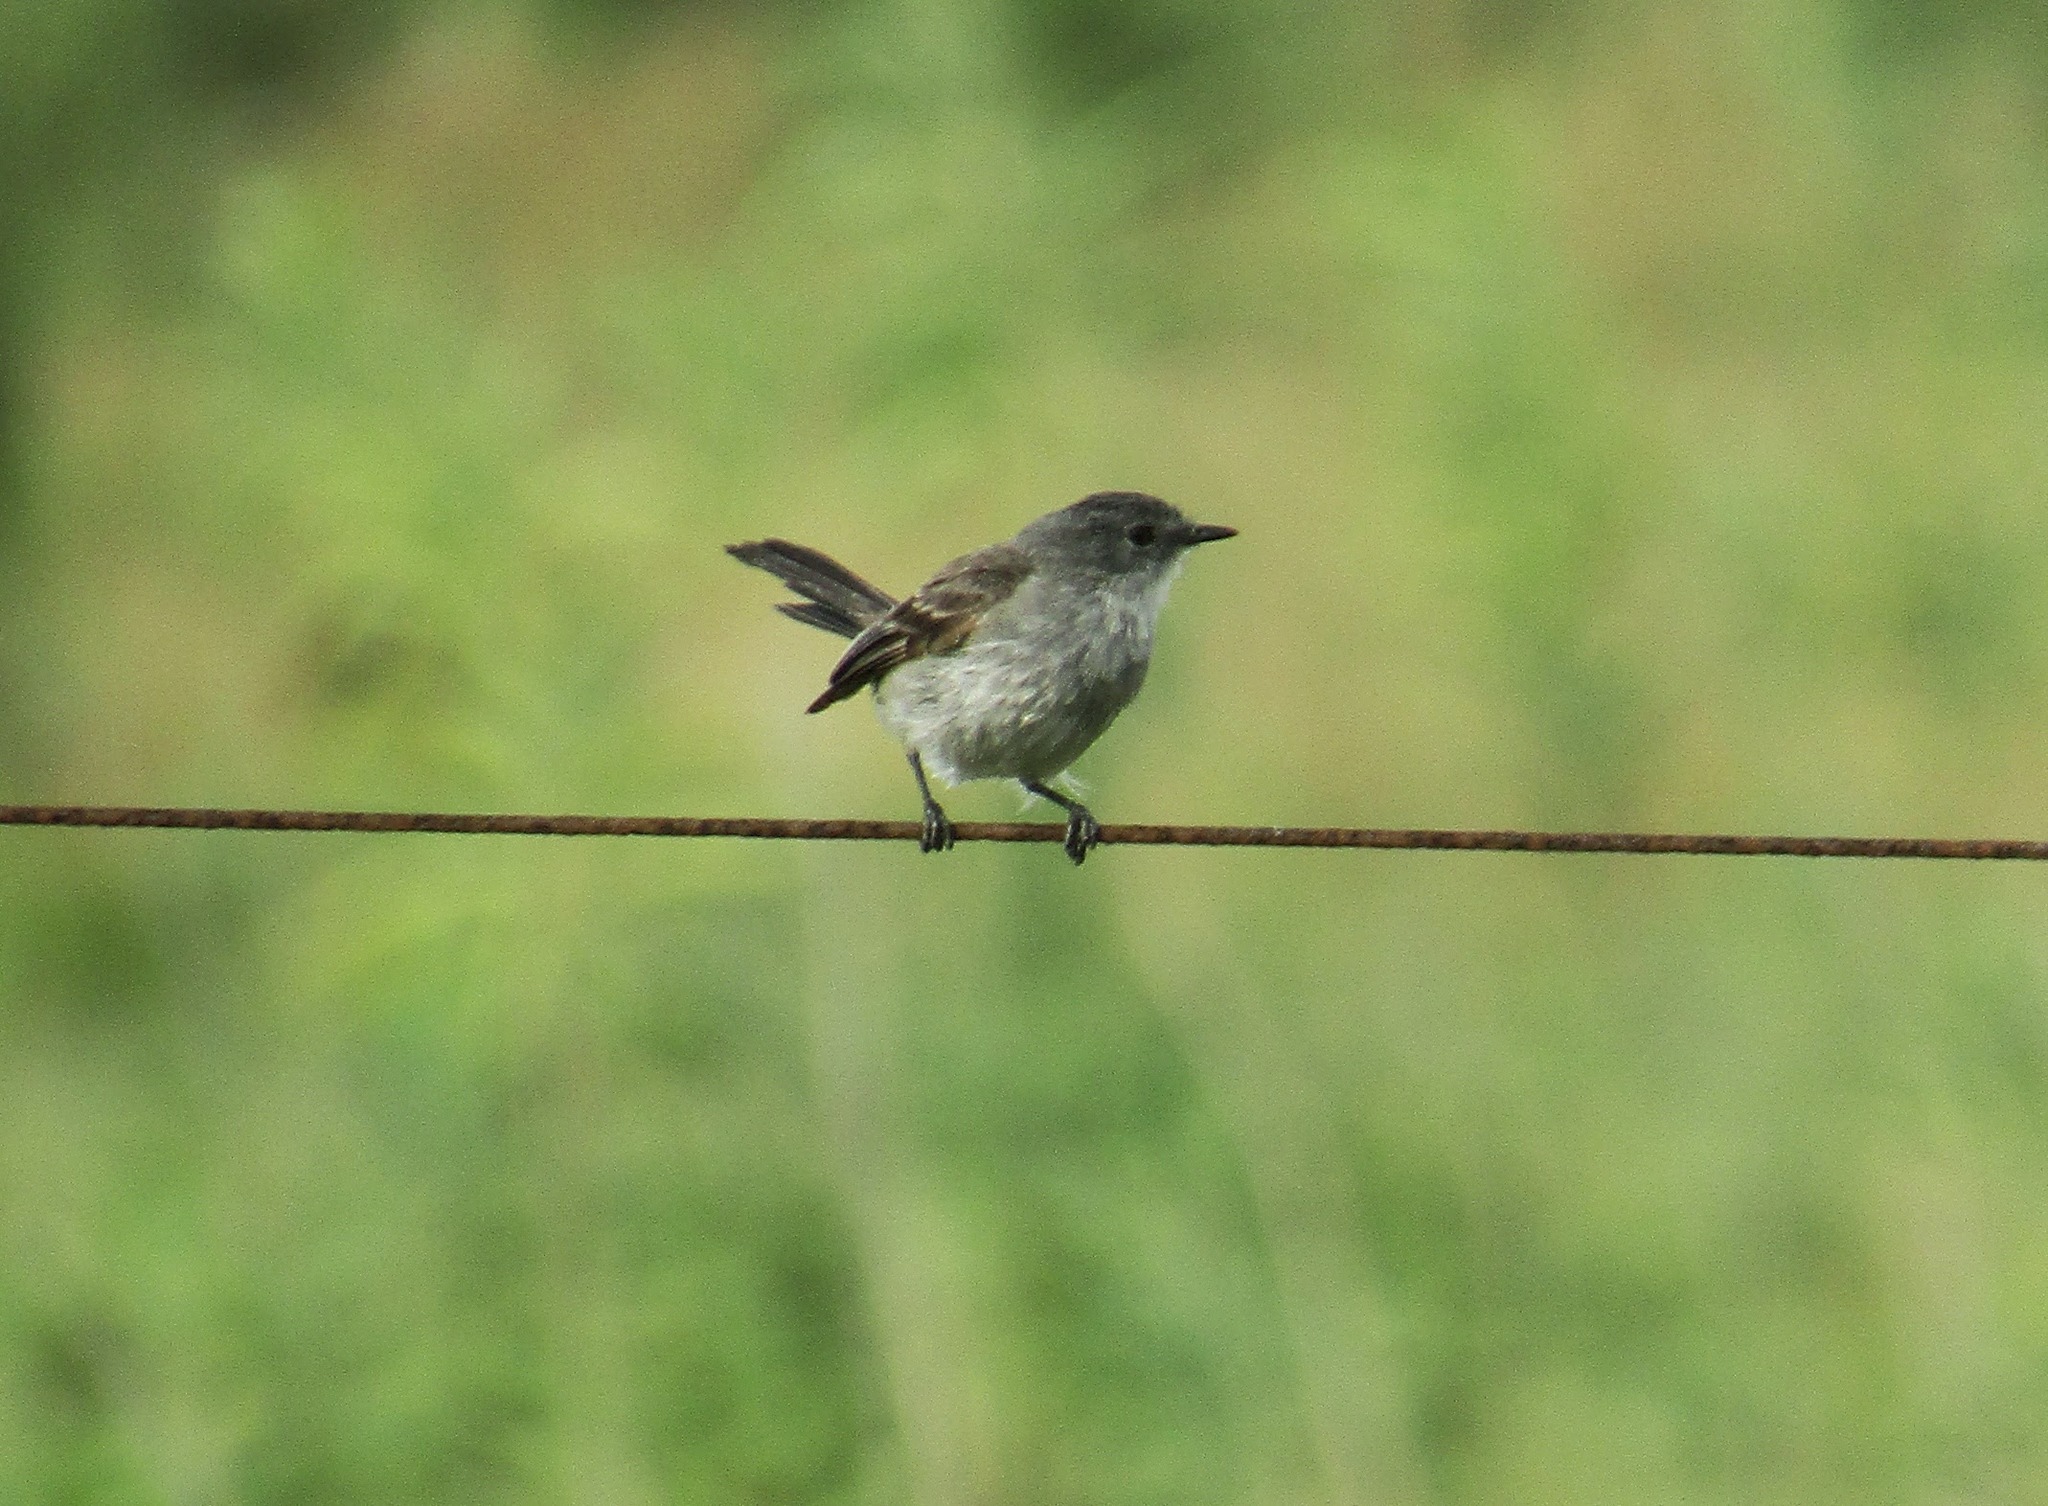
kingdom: Animalia
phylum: Chordata
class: Aves
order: Passeriformes
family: Tyrannidae
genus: Serpophaga
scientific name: Serpophaga nigricans
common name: Sooty tyrannulet
